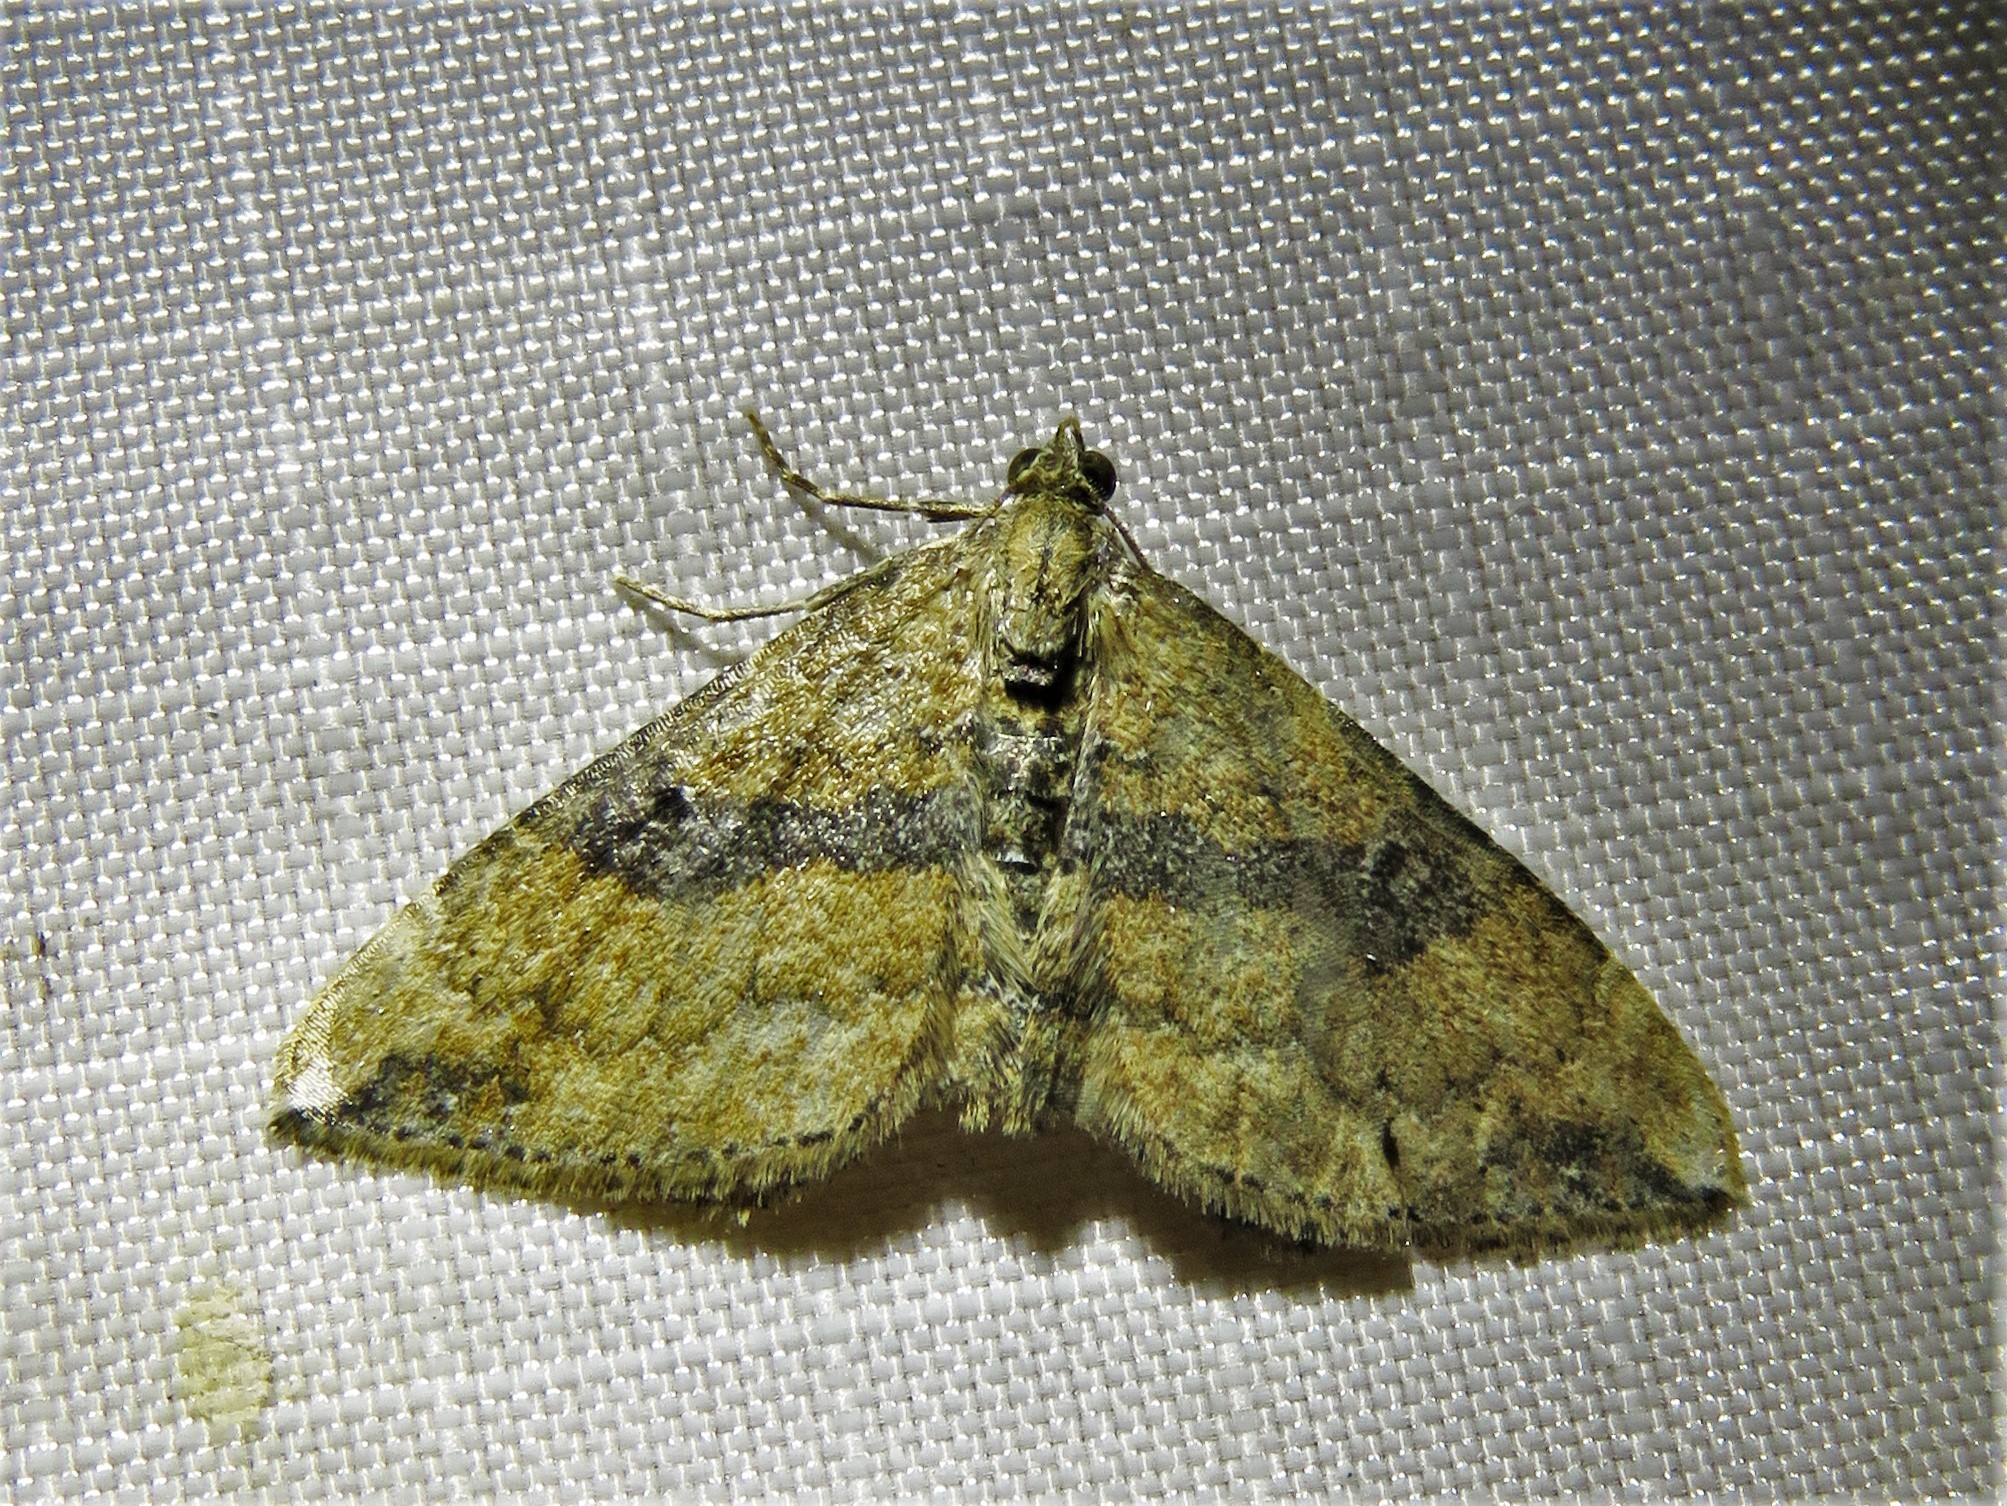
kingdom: Animalia
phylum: Arthropoda
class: Insecta
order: Lepidoptera
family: Geometridae
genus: Orthonama
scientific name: Orthonama obstipata
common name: The gem
